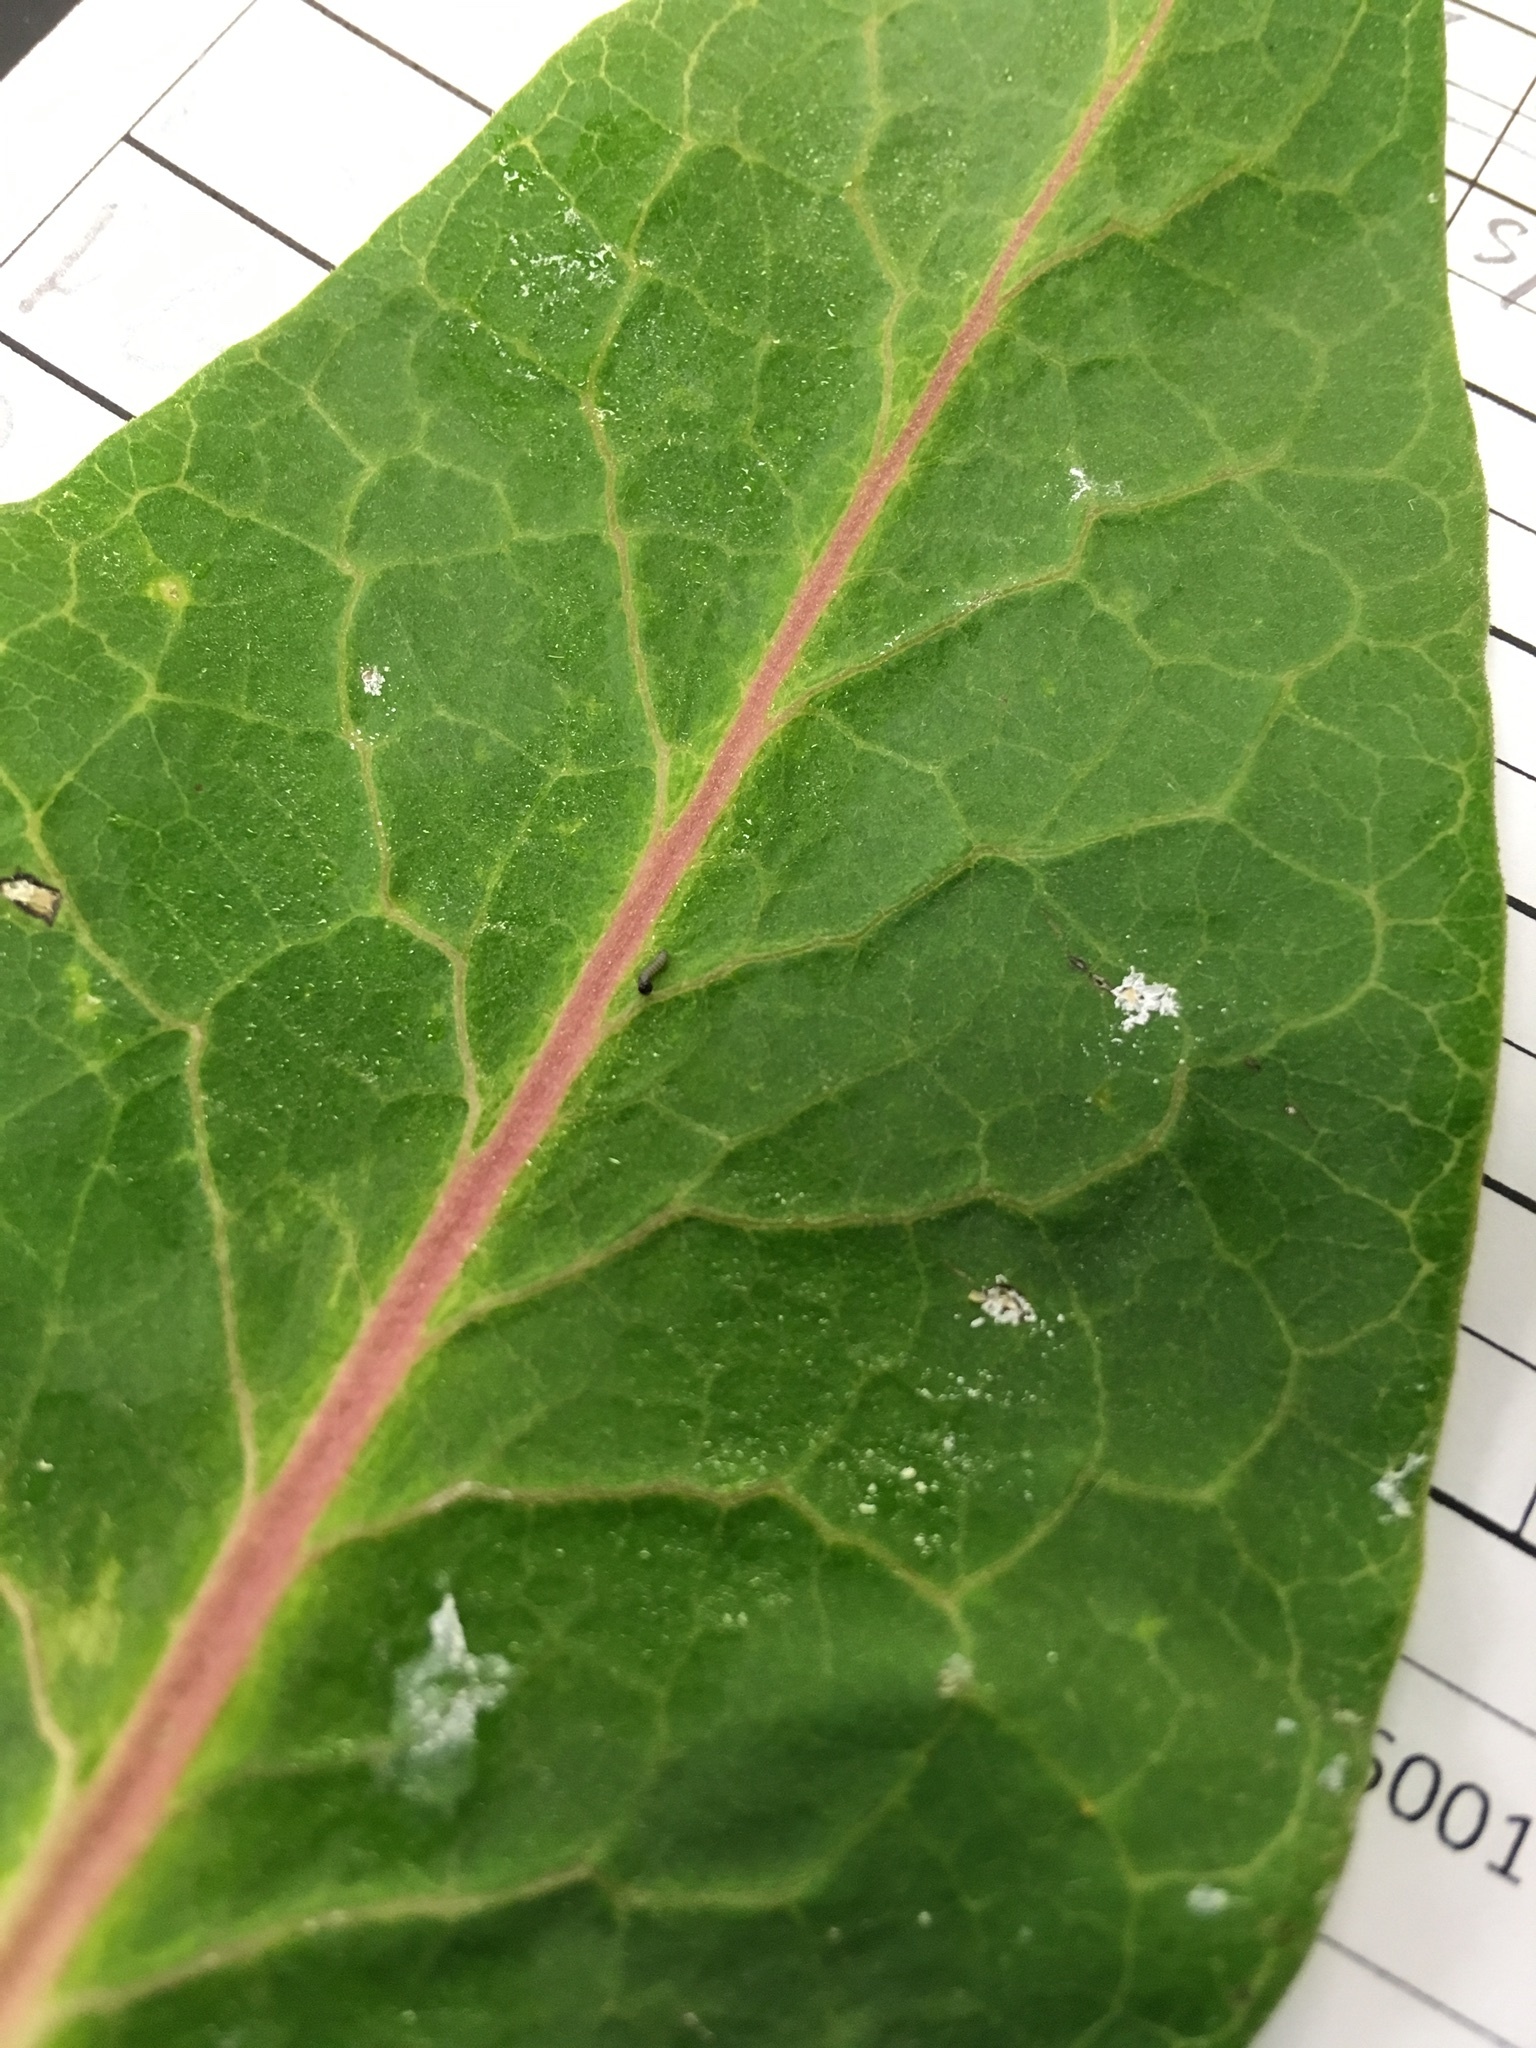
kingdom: Animalia
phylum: Arthropoda
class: Insecta
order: Lepidoptera
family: Nymphalidae
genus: Danaus
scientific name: Danaus plexippus
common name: Monarch
